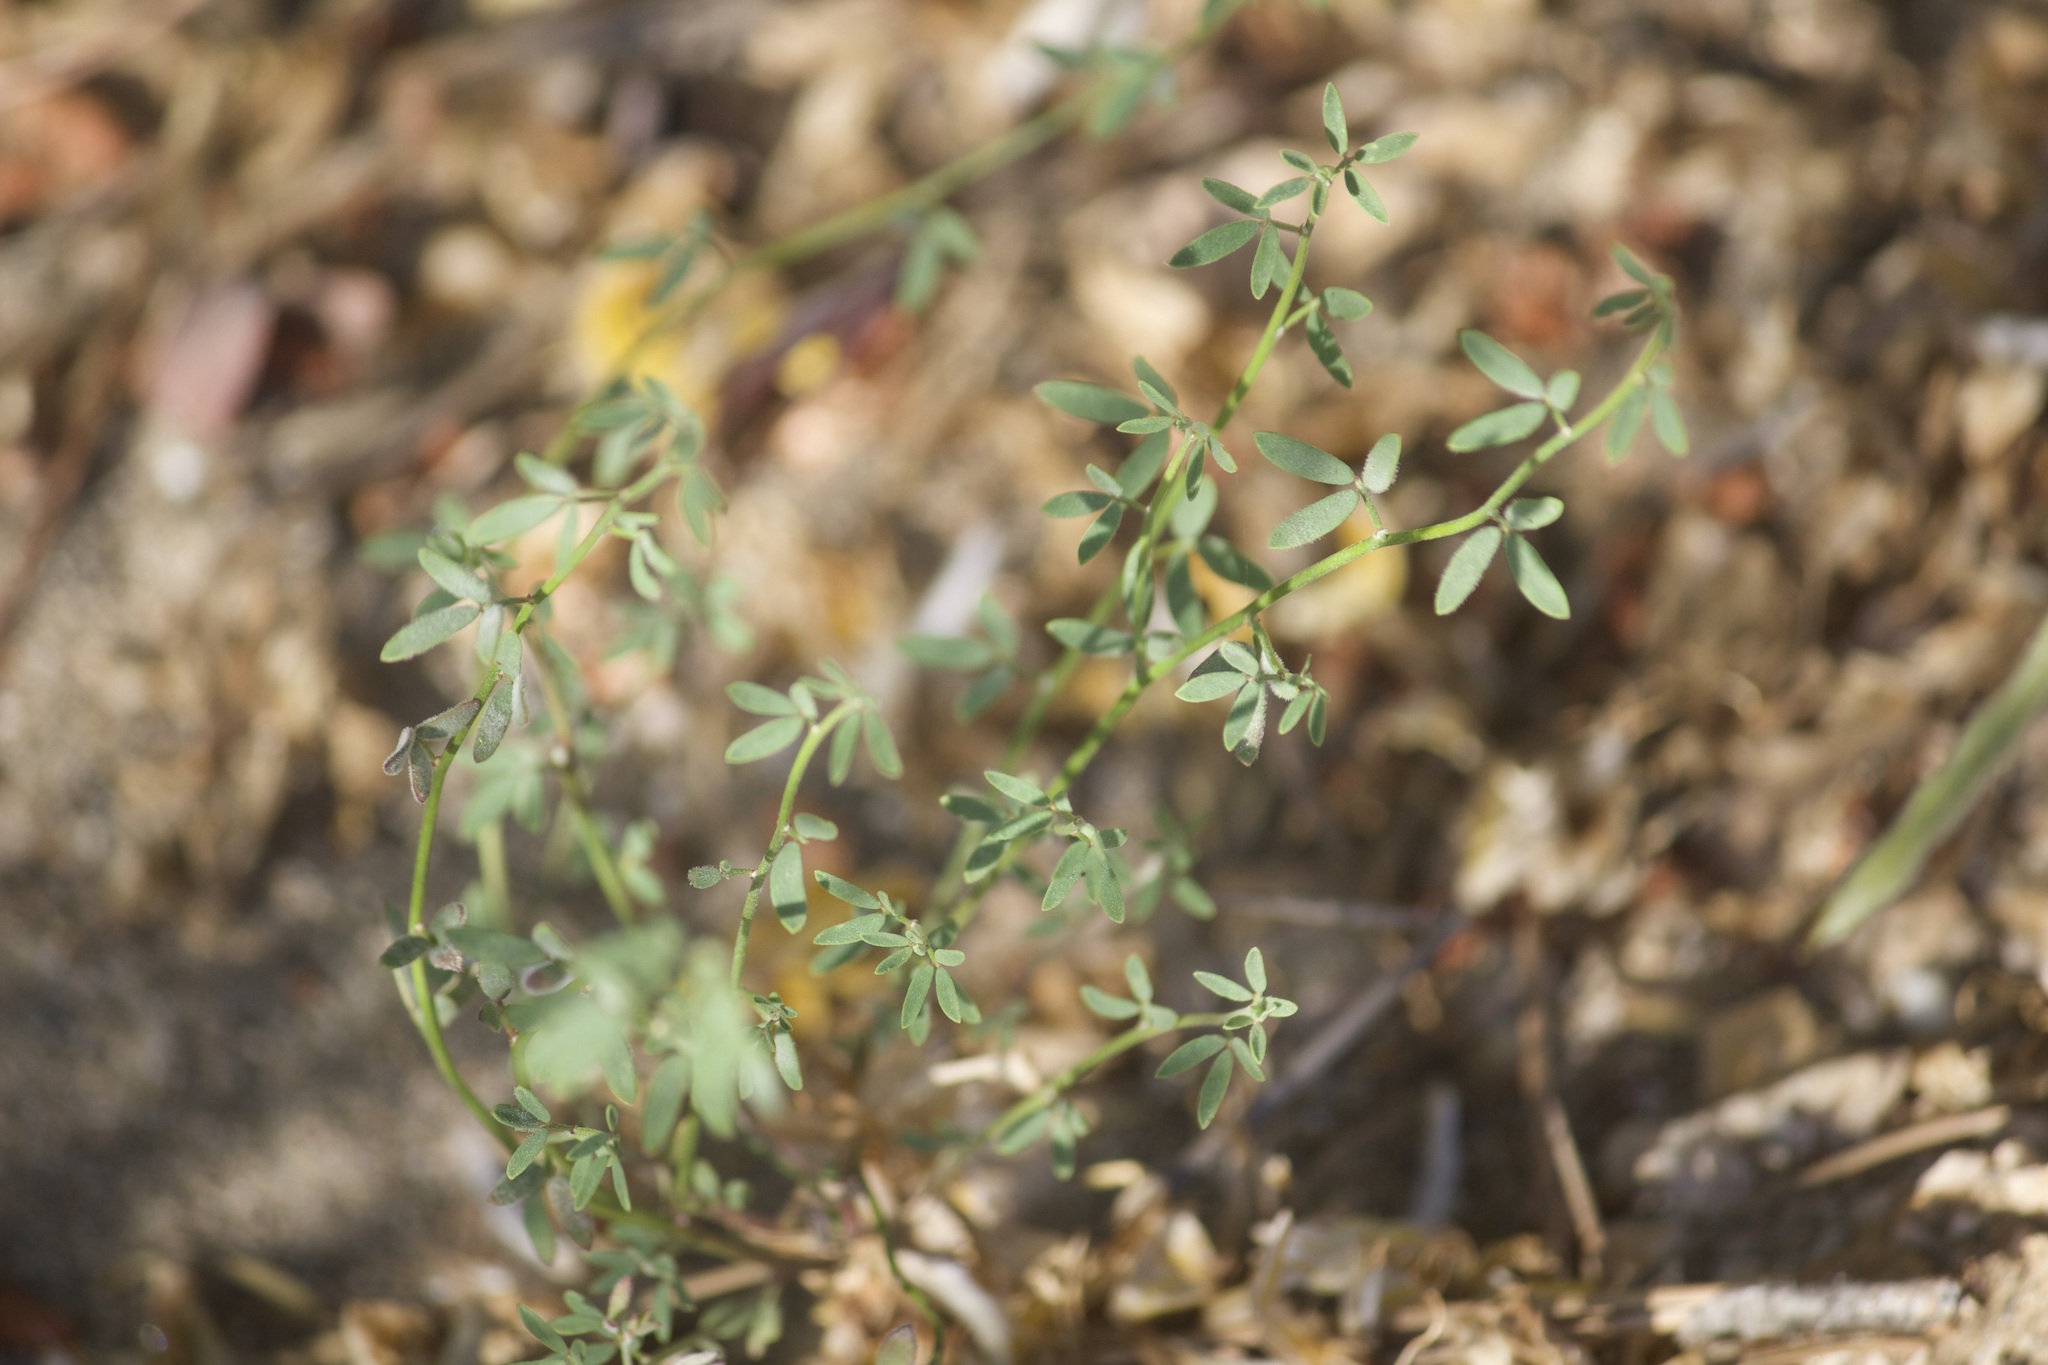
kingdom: Plantae
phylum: Tracheophyta
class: Magnoliopsida
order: Fabales
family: Fabaceae
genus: Acmispon
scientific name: Acmispon glaber
